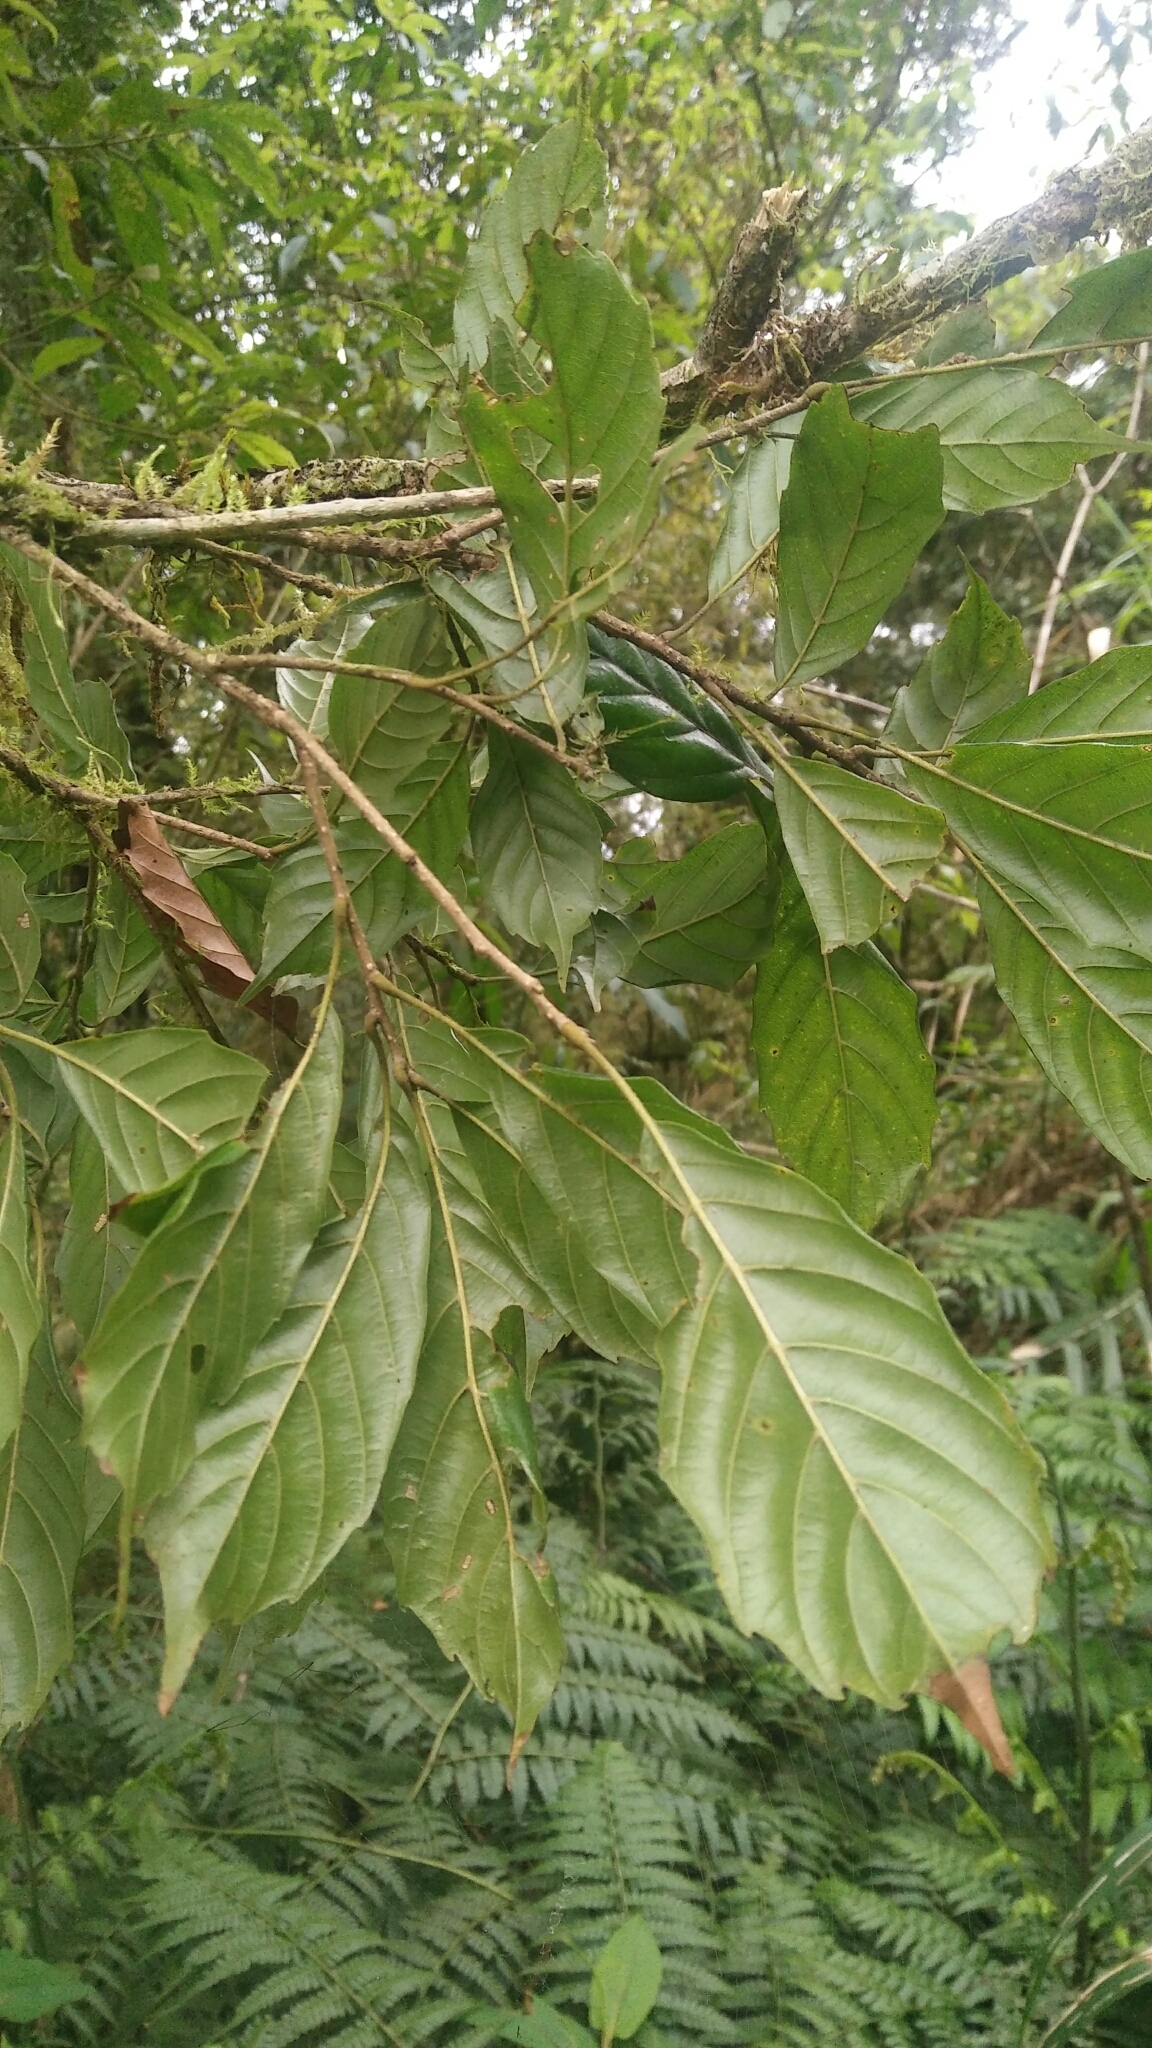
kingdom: Plantae
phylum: Tracheophyta
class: Magnoliopsida
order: Fagales
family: Fagaceae
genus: Lithocarpus
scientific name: Lithocarpus corneus
